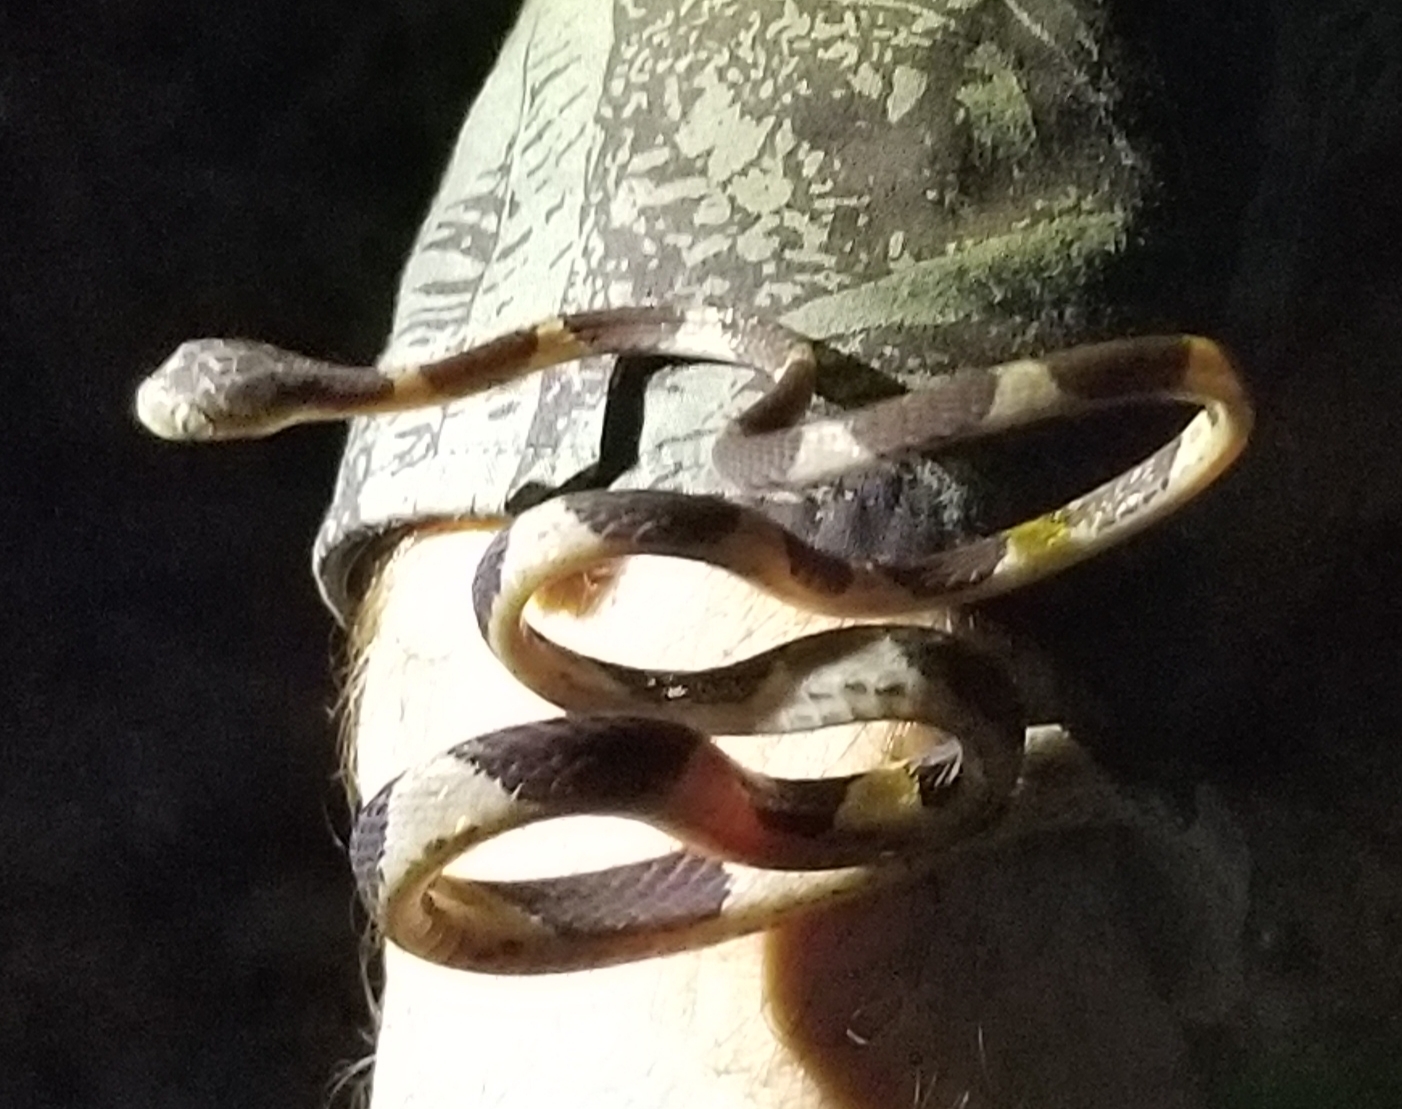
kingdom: Animalia
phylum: Chordata
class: Squamata
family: Colubridae
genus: Imantodes
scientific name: Imantodes cenchoa
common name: Blunthead tree snake
